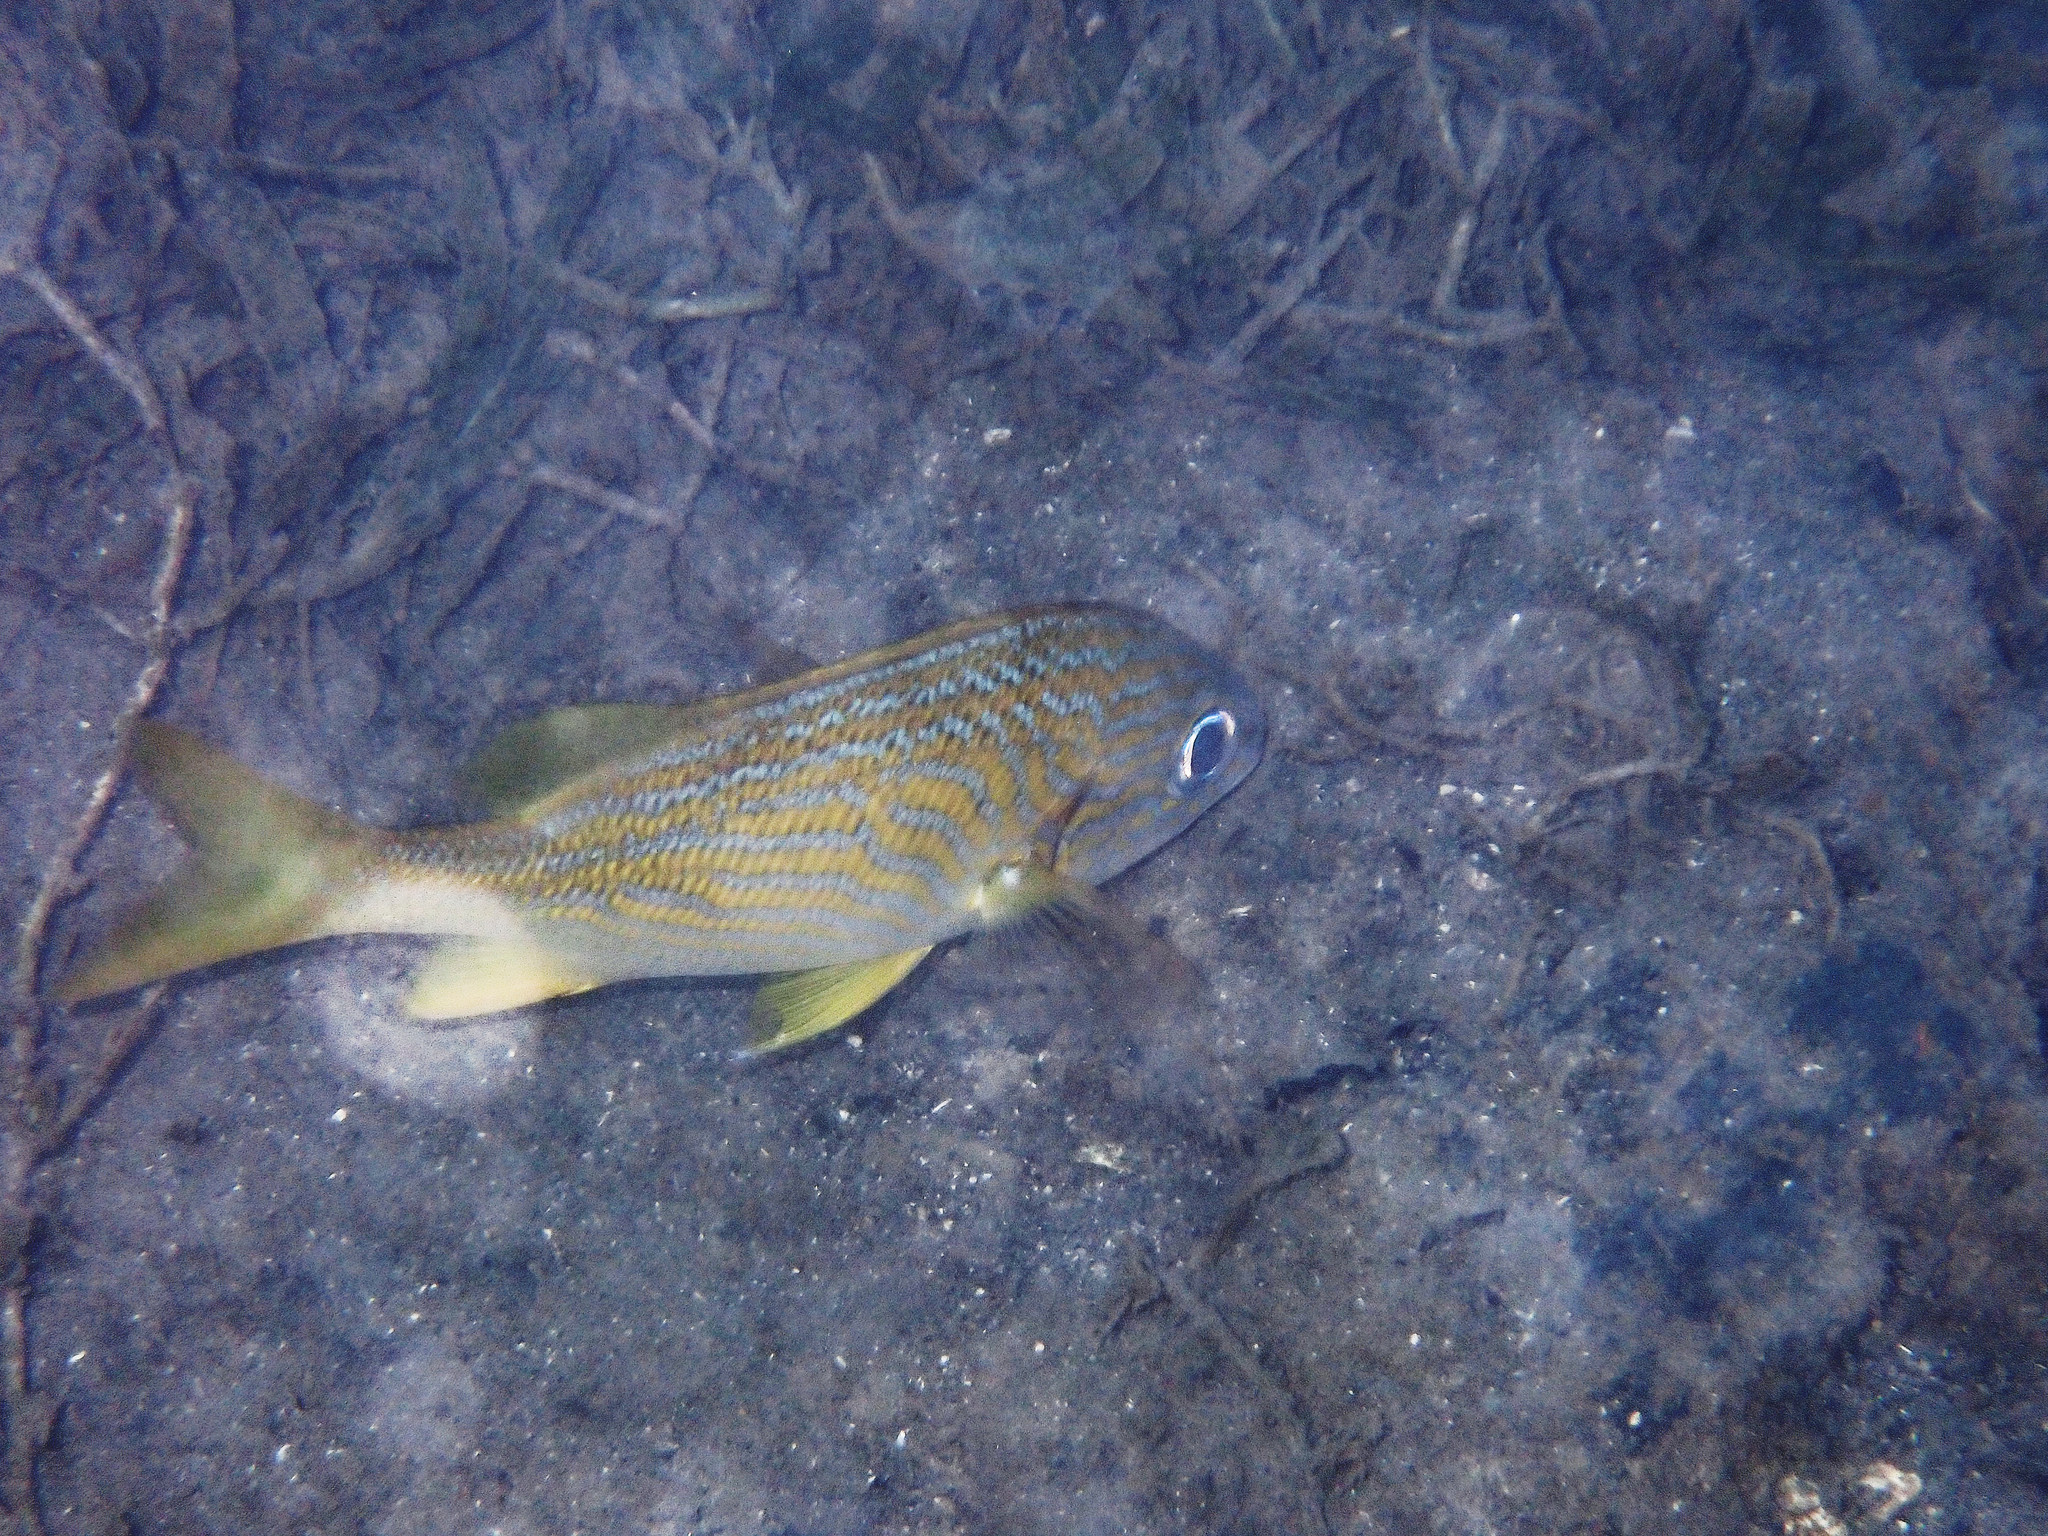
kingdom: Animalia
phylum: Chordata
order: Perciformes
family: Haemulidae
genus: Haemulon
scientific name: Haemulon flavolineatum
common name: French grunt
